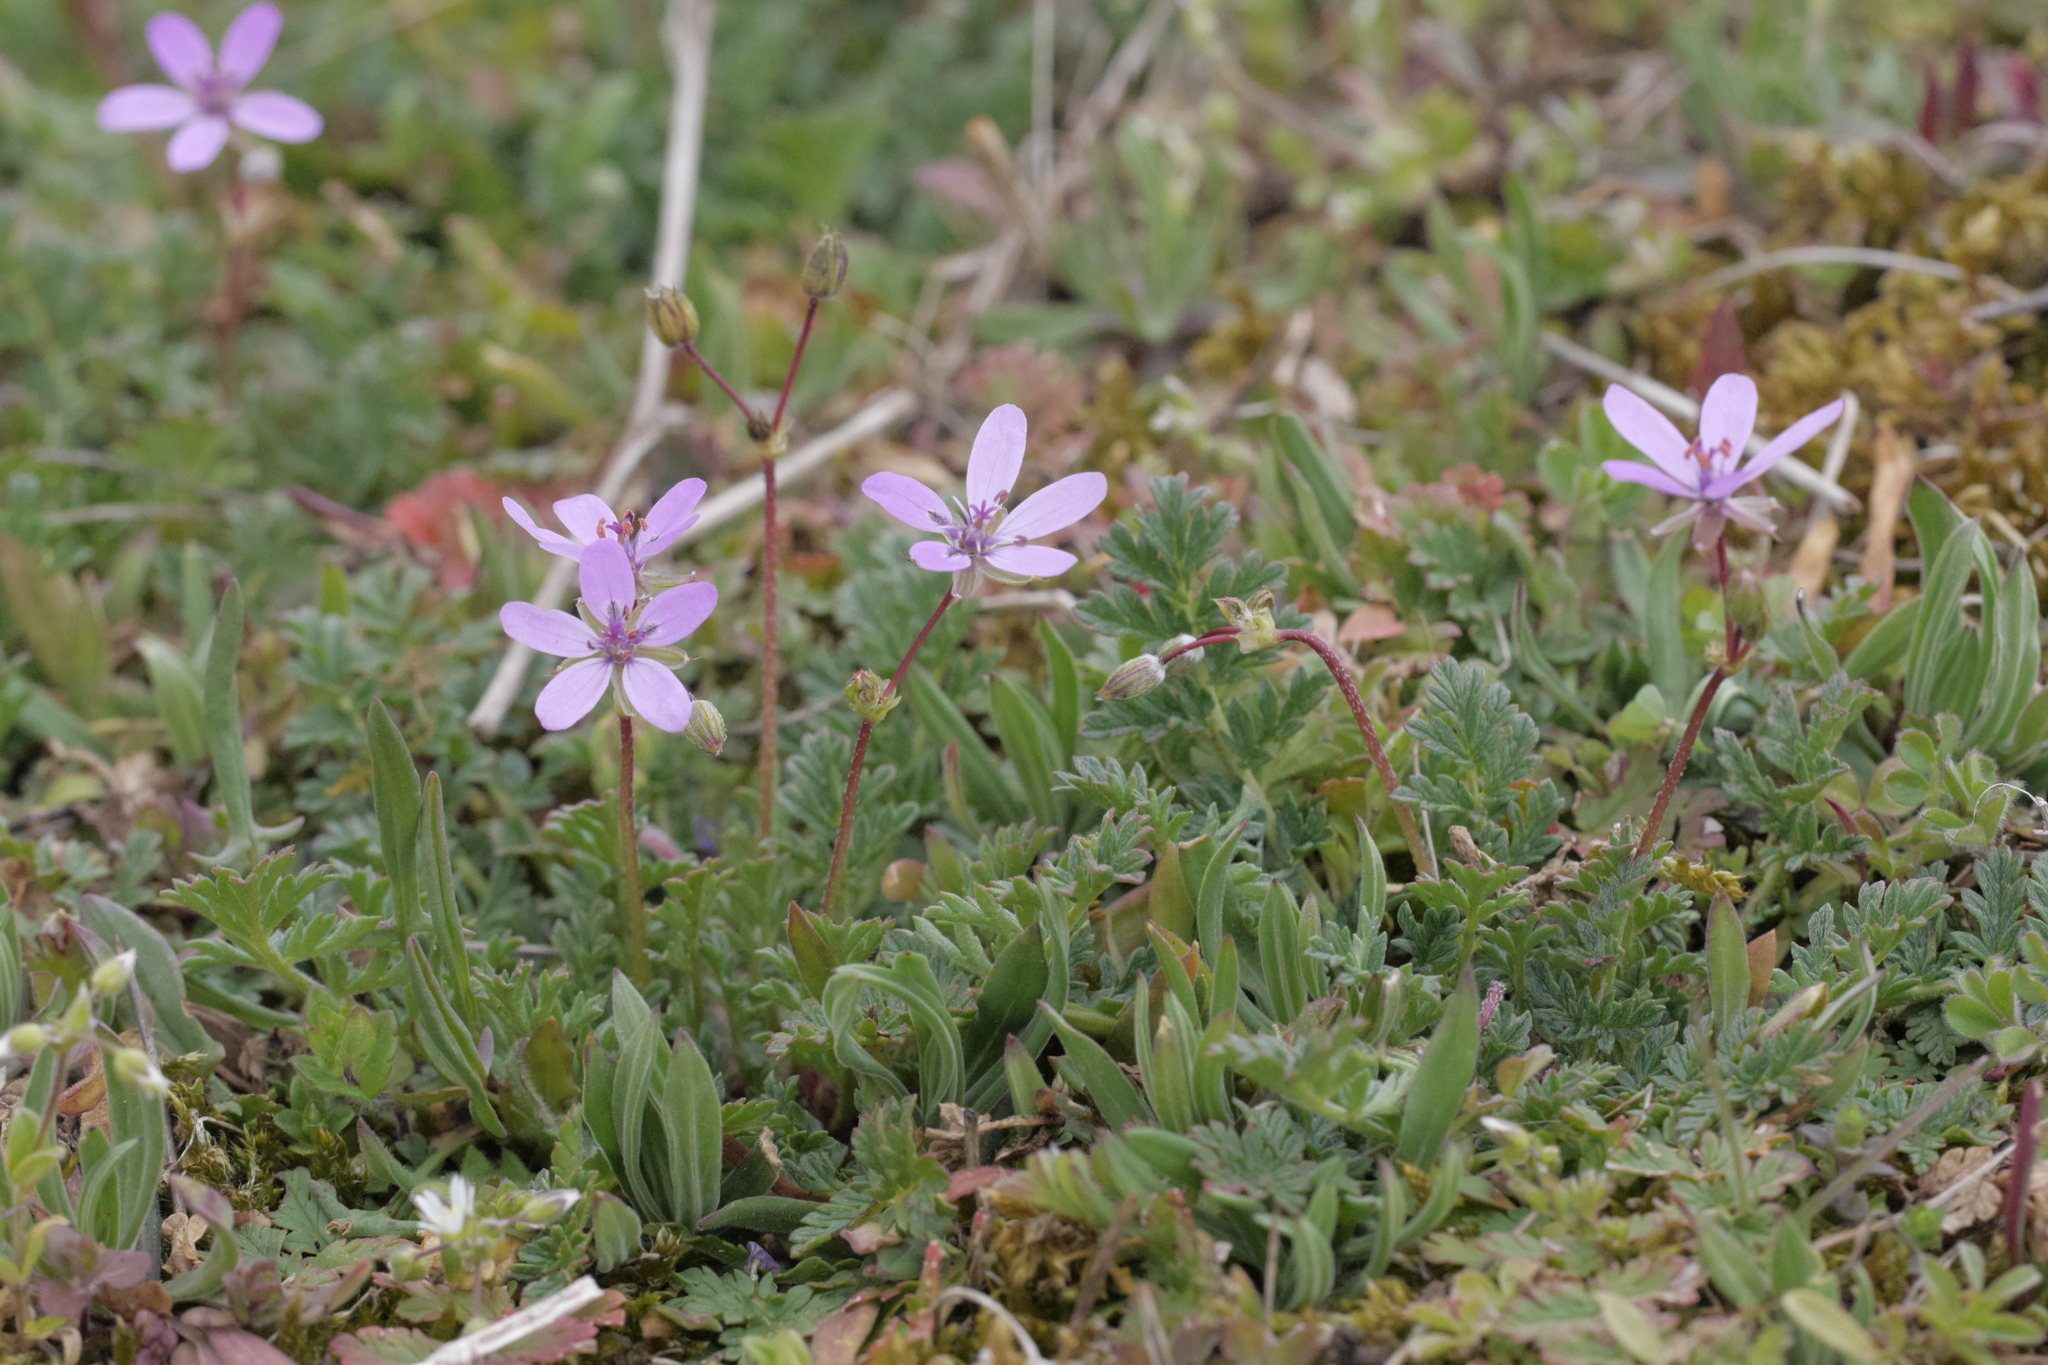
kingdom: Plantae
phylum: Tracheophyta
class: Magnoliopsida
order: Geraniales
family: Geraniaceae
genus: Erodium
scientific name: Erodium cicutarium
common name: Common stork's-bill
